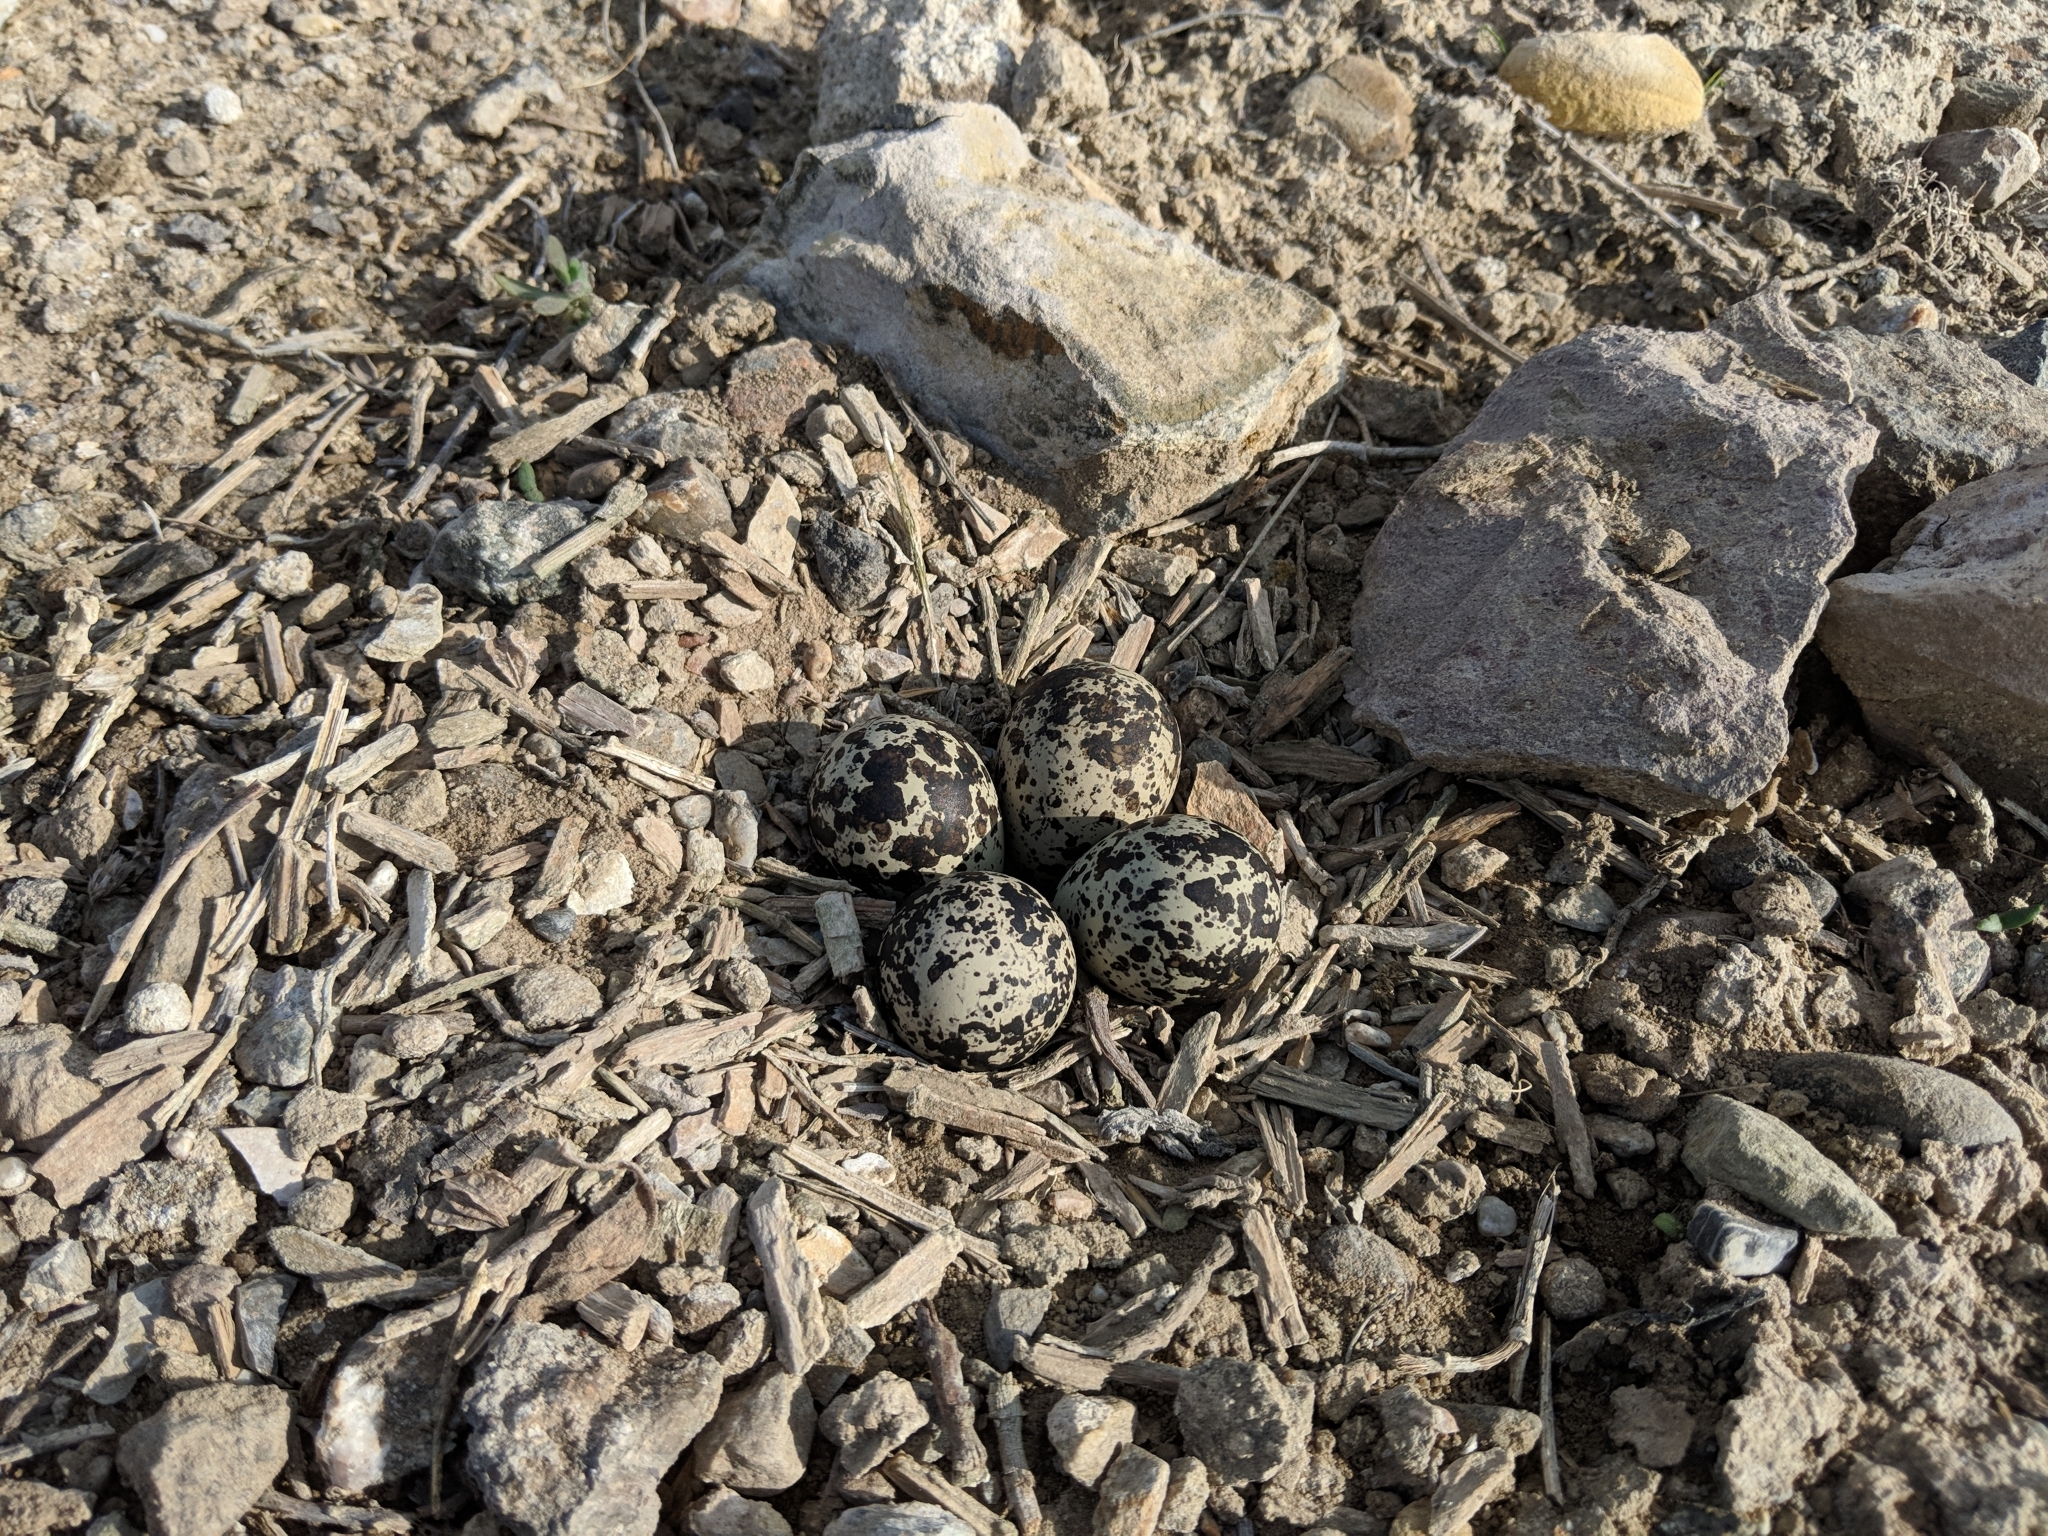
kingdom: Animalia
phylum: Chordata
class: Aves
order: Charadriiformes
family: Charadriidae
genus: Charadrius
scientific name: Charadrius vociferus
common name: Killdeer
